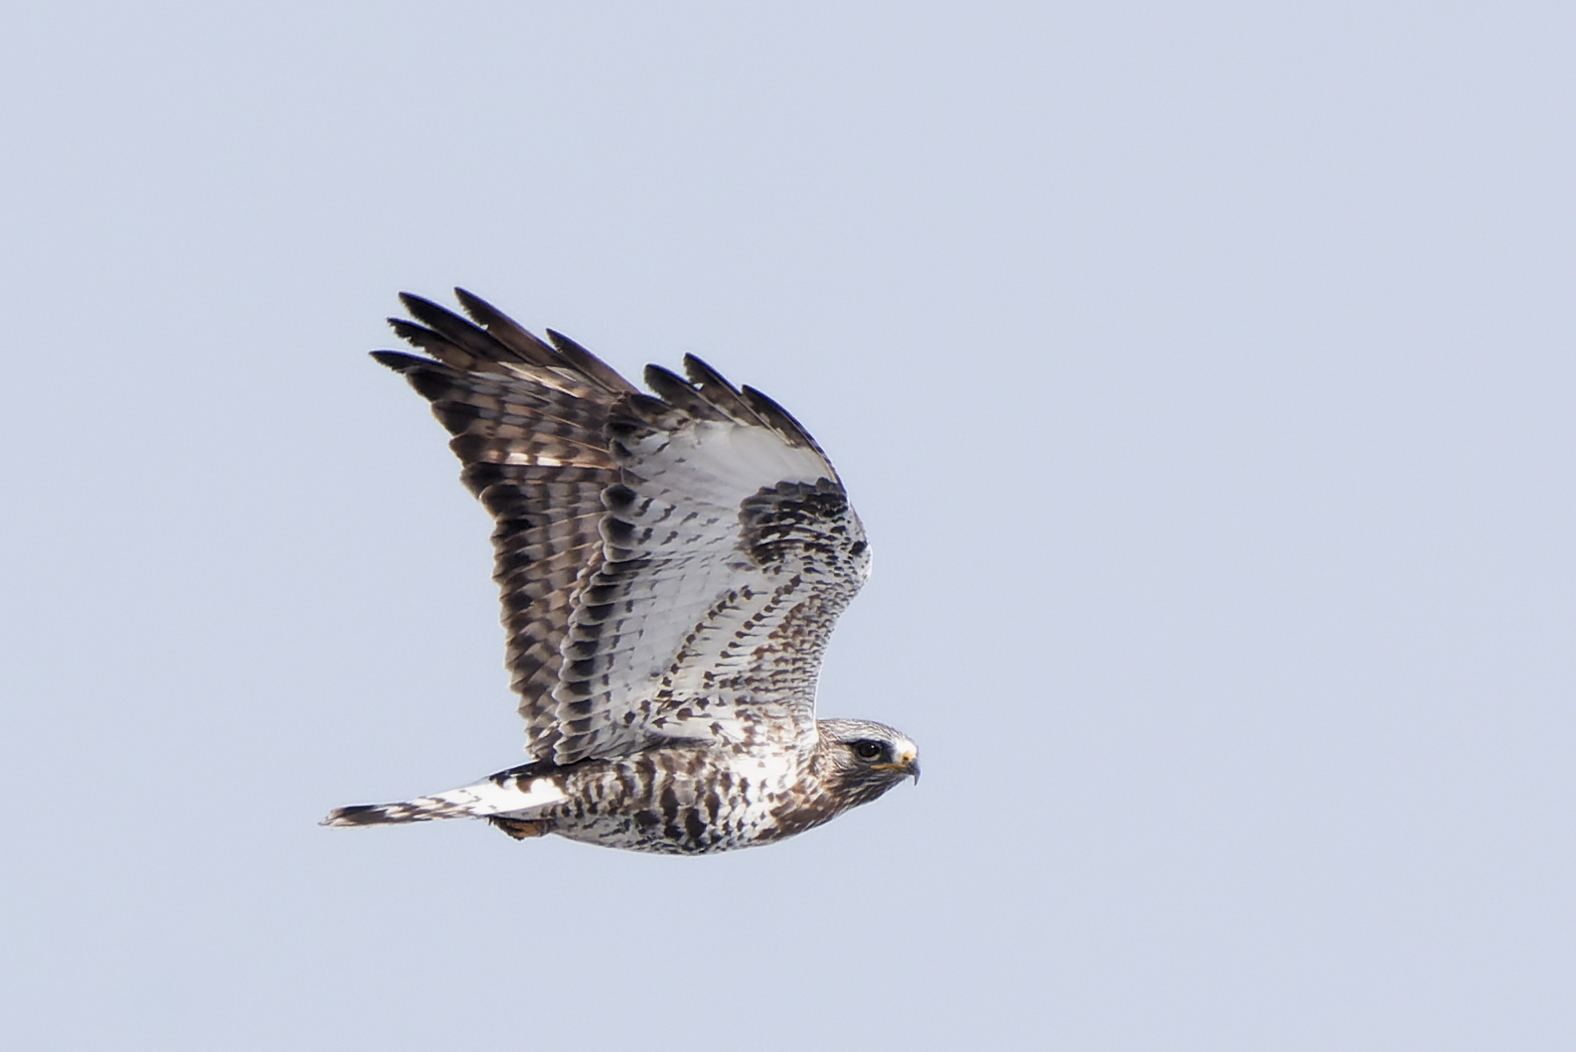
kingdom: Animalia
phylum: Chordata
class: Aves
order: Accipitriformes
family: Accipitridae
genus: Buteo
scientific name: Buteo lagopus
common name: Rough-legged buzzard
